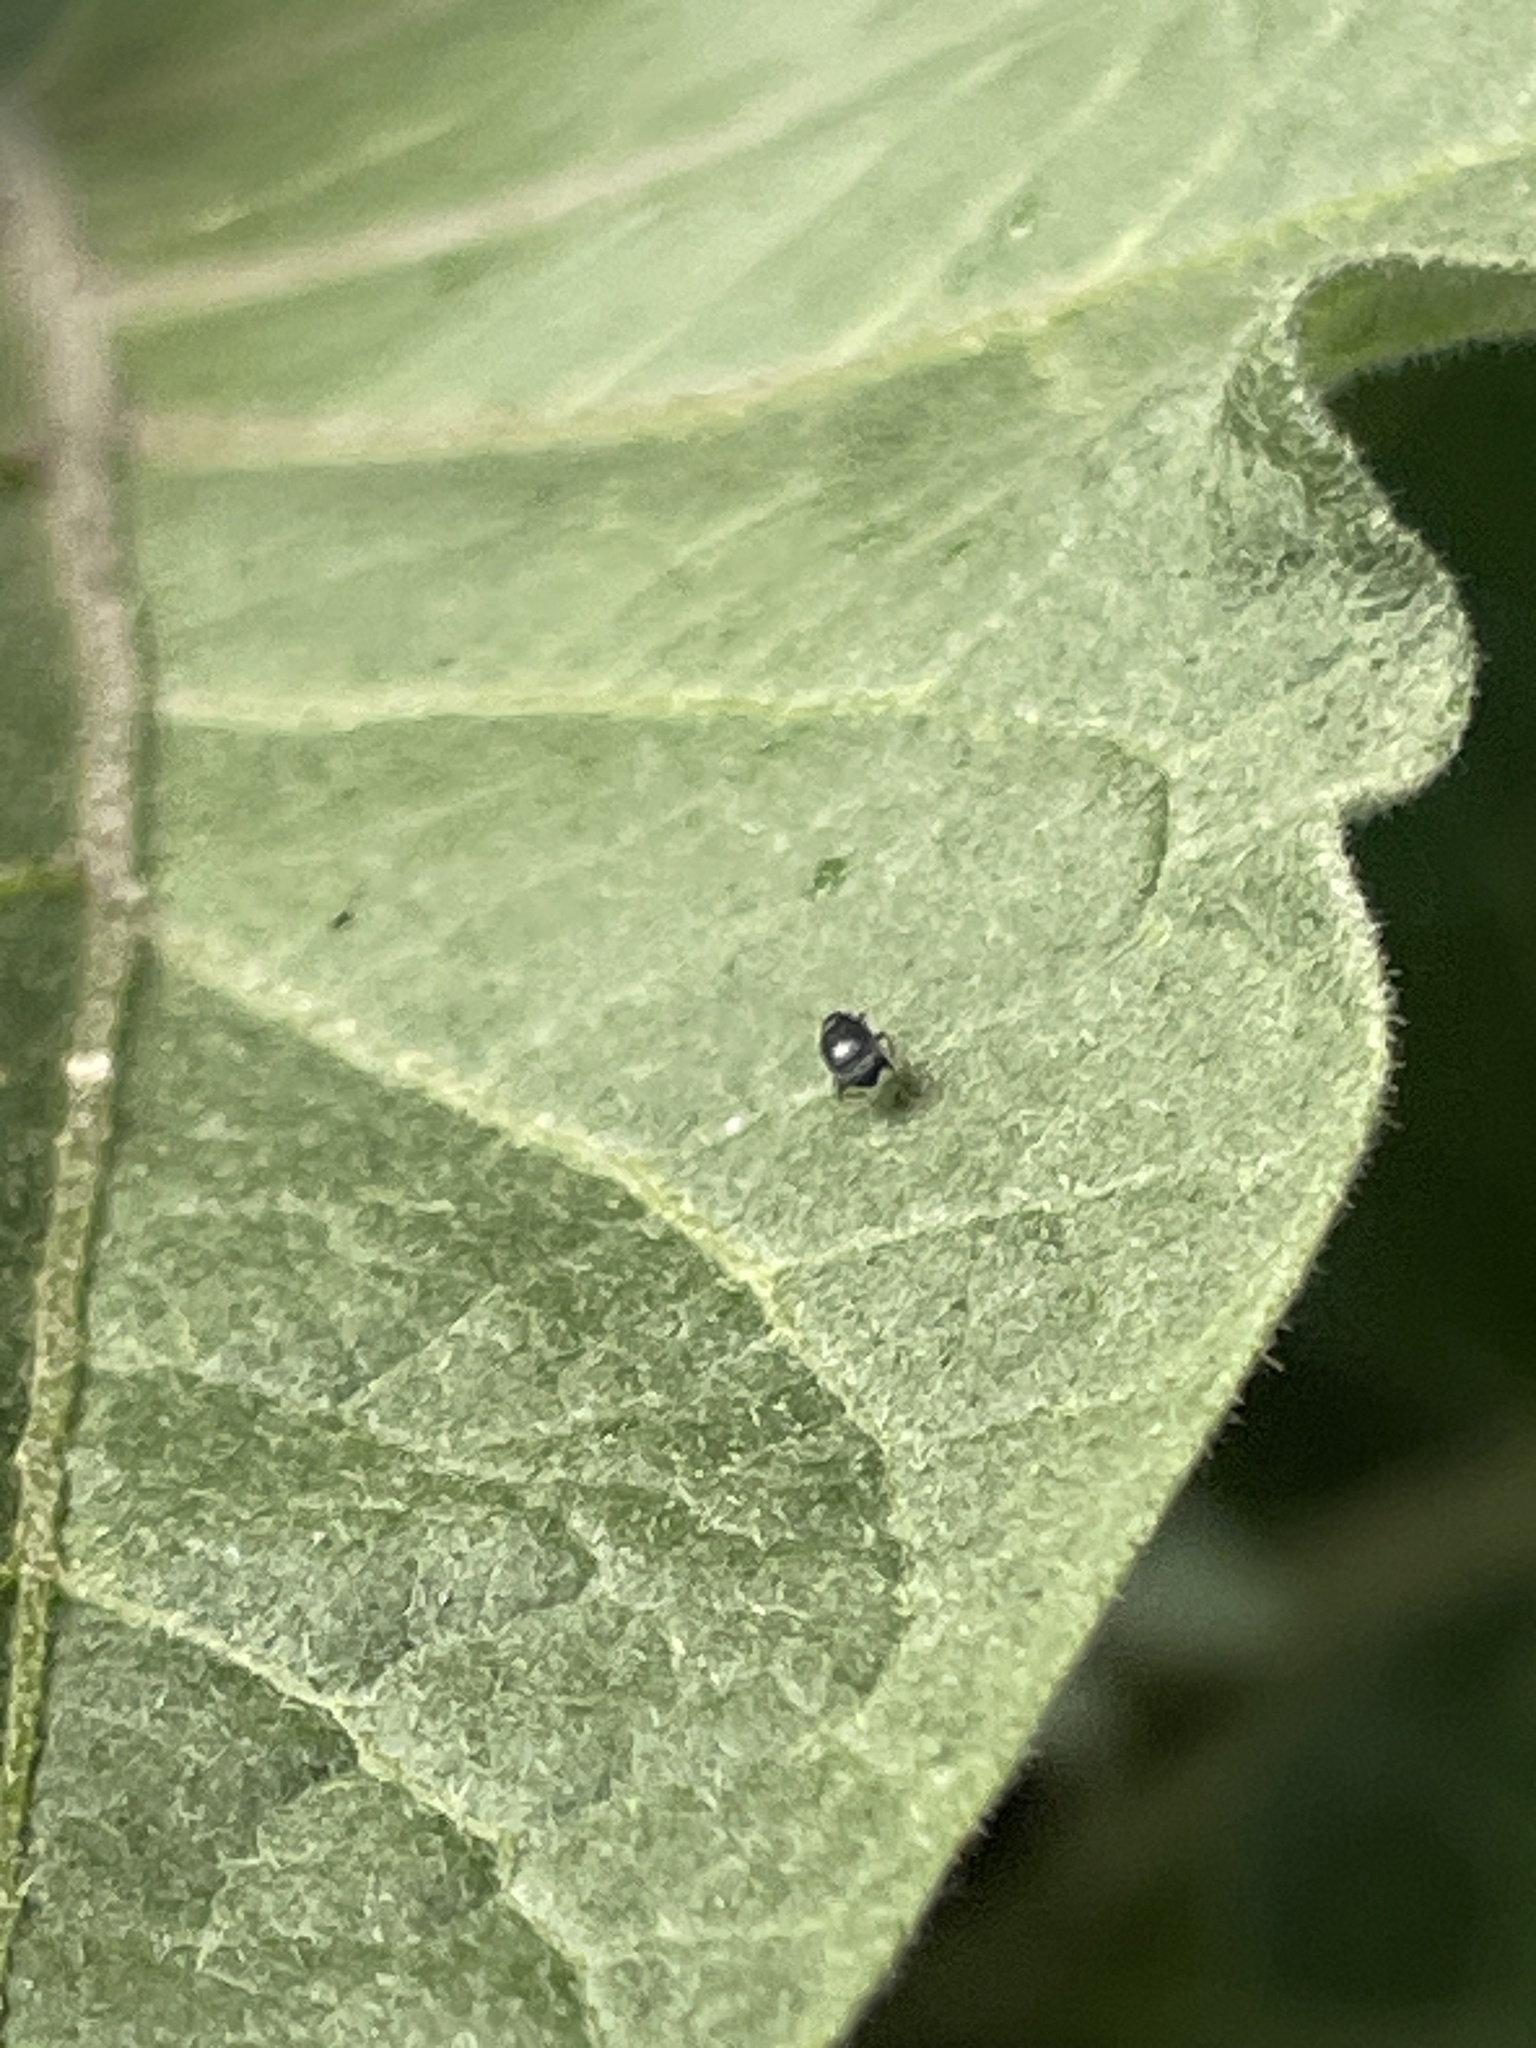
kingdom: Animalia
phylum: Arthropoda
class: Insecta
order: Coleoptera
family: Chrysomelidae
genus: Epitrix
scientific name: Epitrix fuscula
